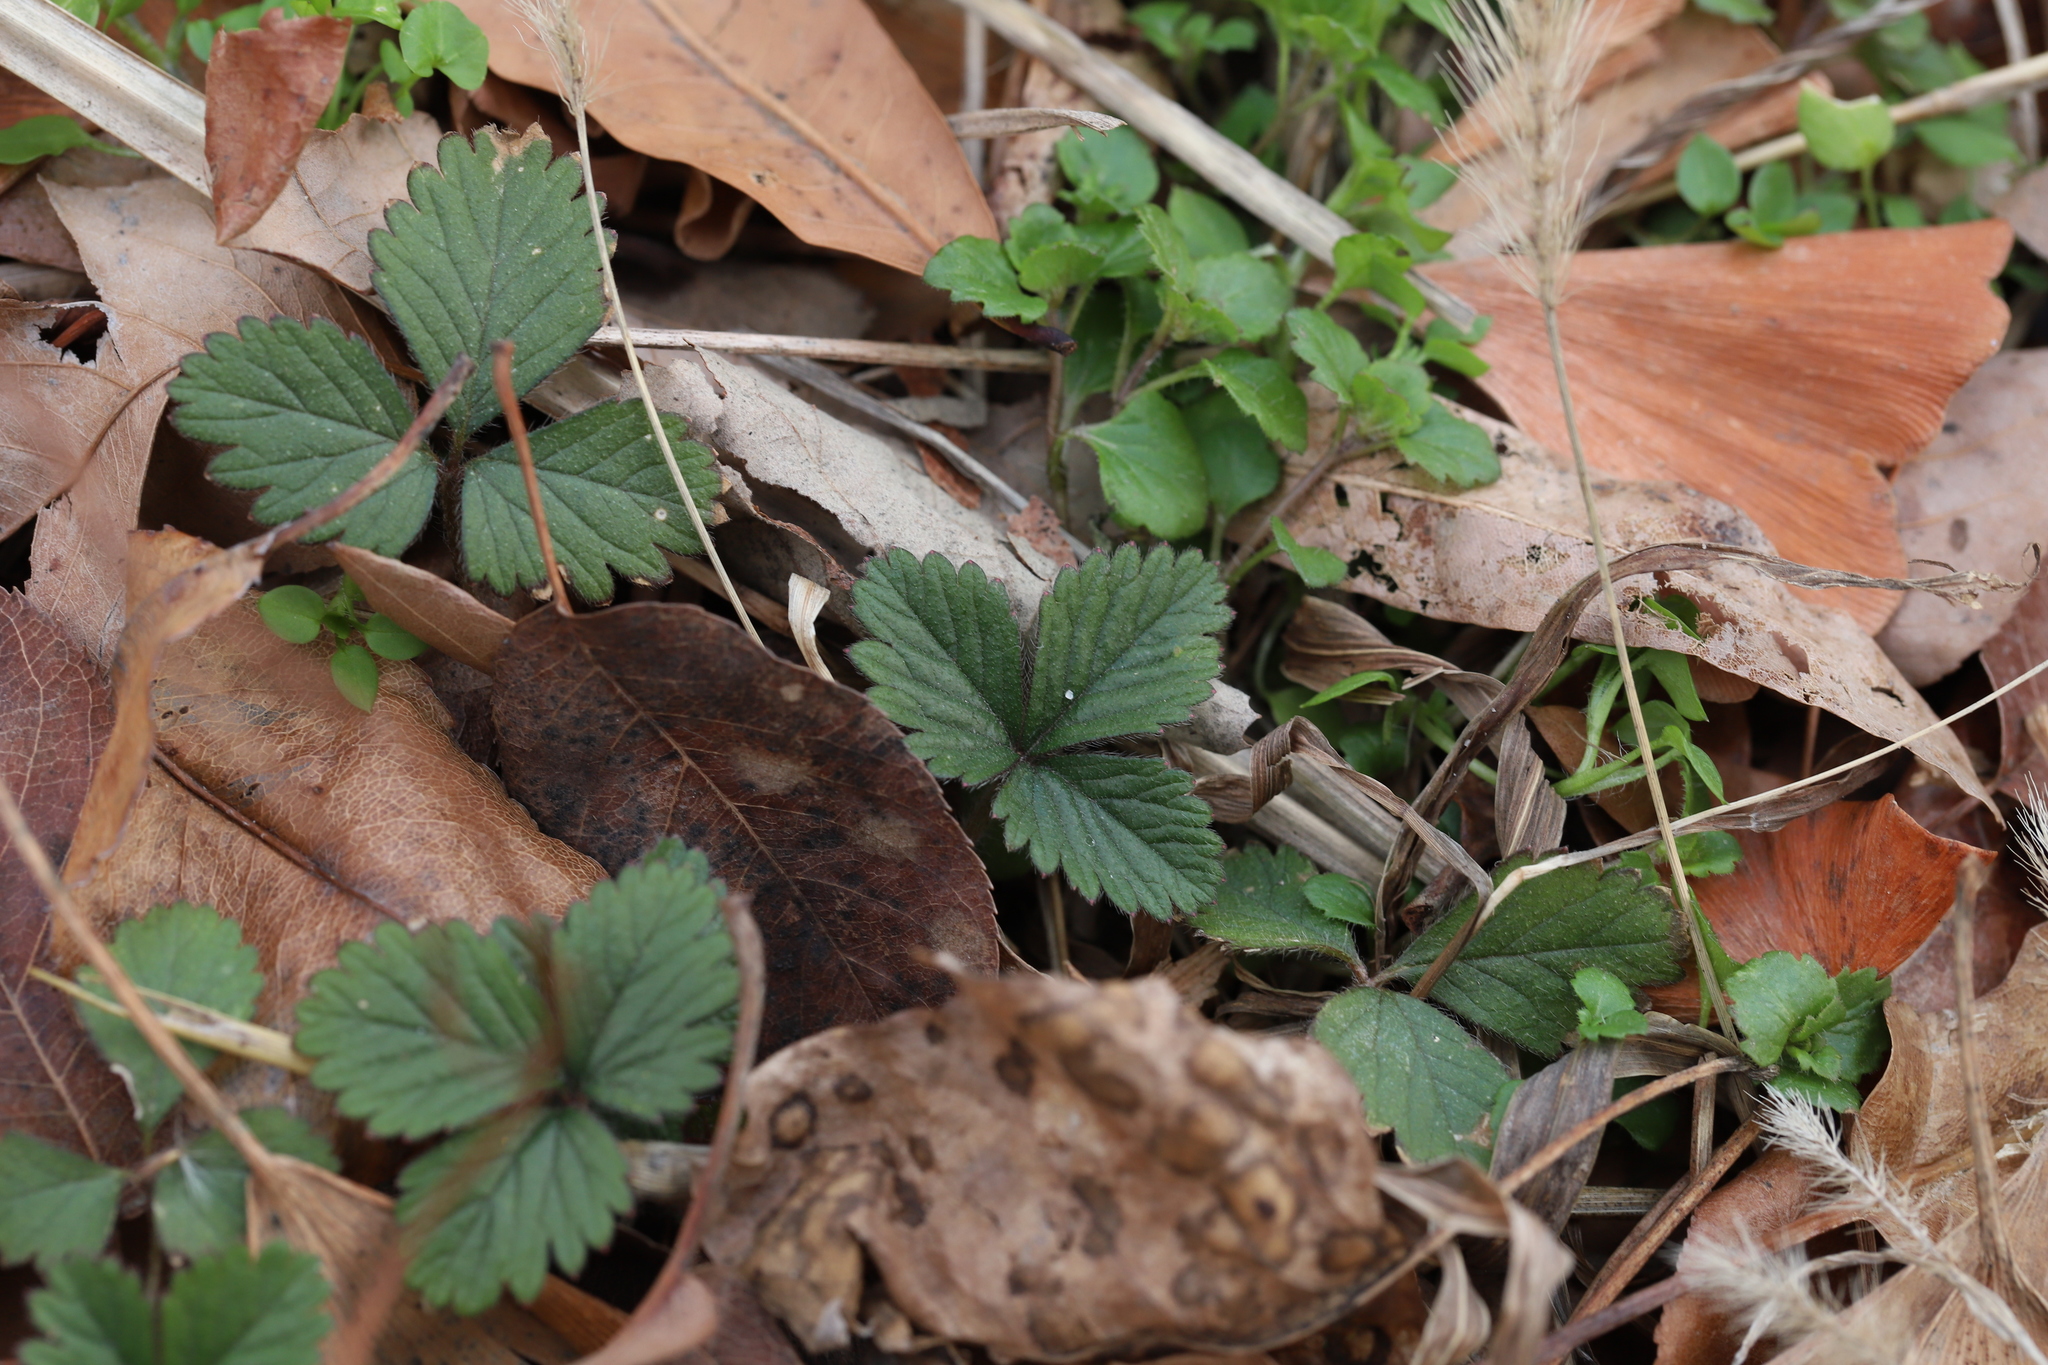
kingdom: Plantae
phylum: Tracheophyta
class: Magnoliopsida
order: Rosales
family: Rosaceae
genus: Potentilla
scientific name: Potentilla indica
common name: Yellow-flowered strawberry
